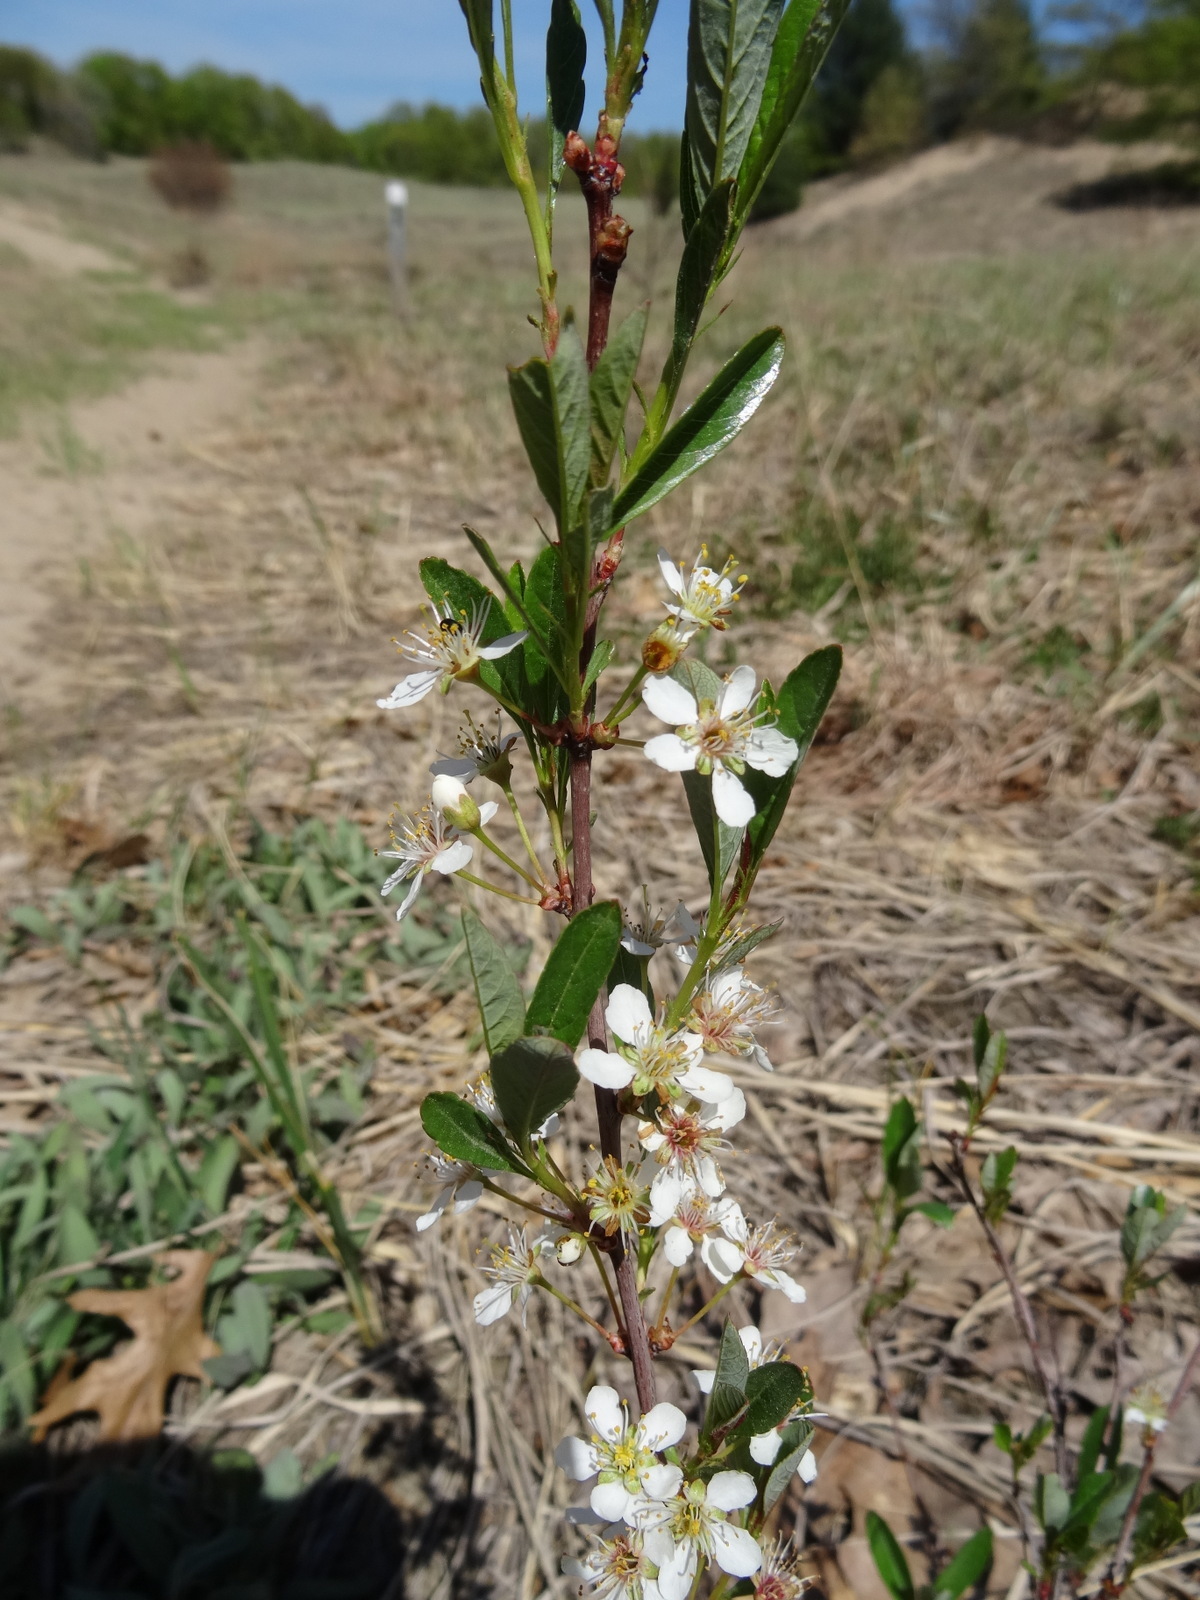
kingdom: Plantae
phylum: Tracheophyta
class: Magnoliopsida
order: Rosales
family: Rosaceae
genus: Prunus
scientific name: Prunus pumila
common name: Dwarf cherry
